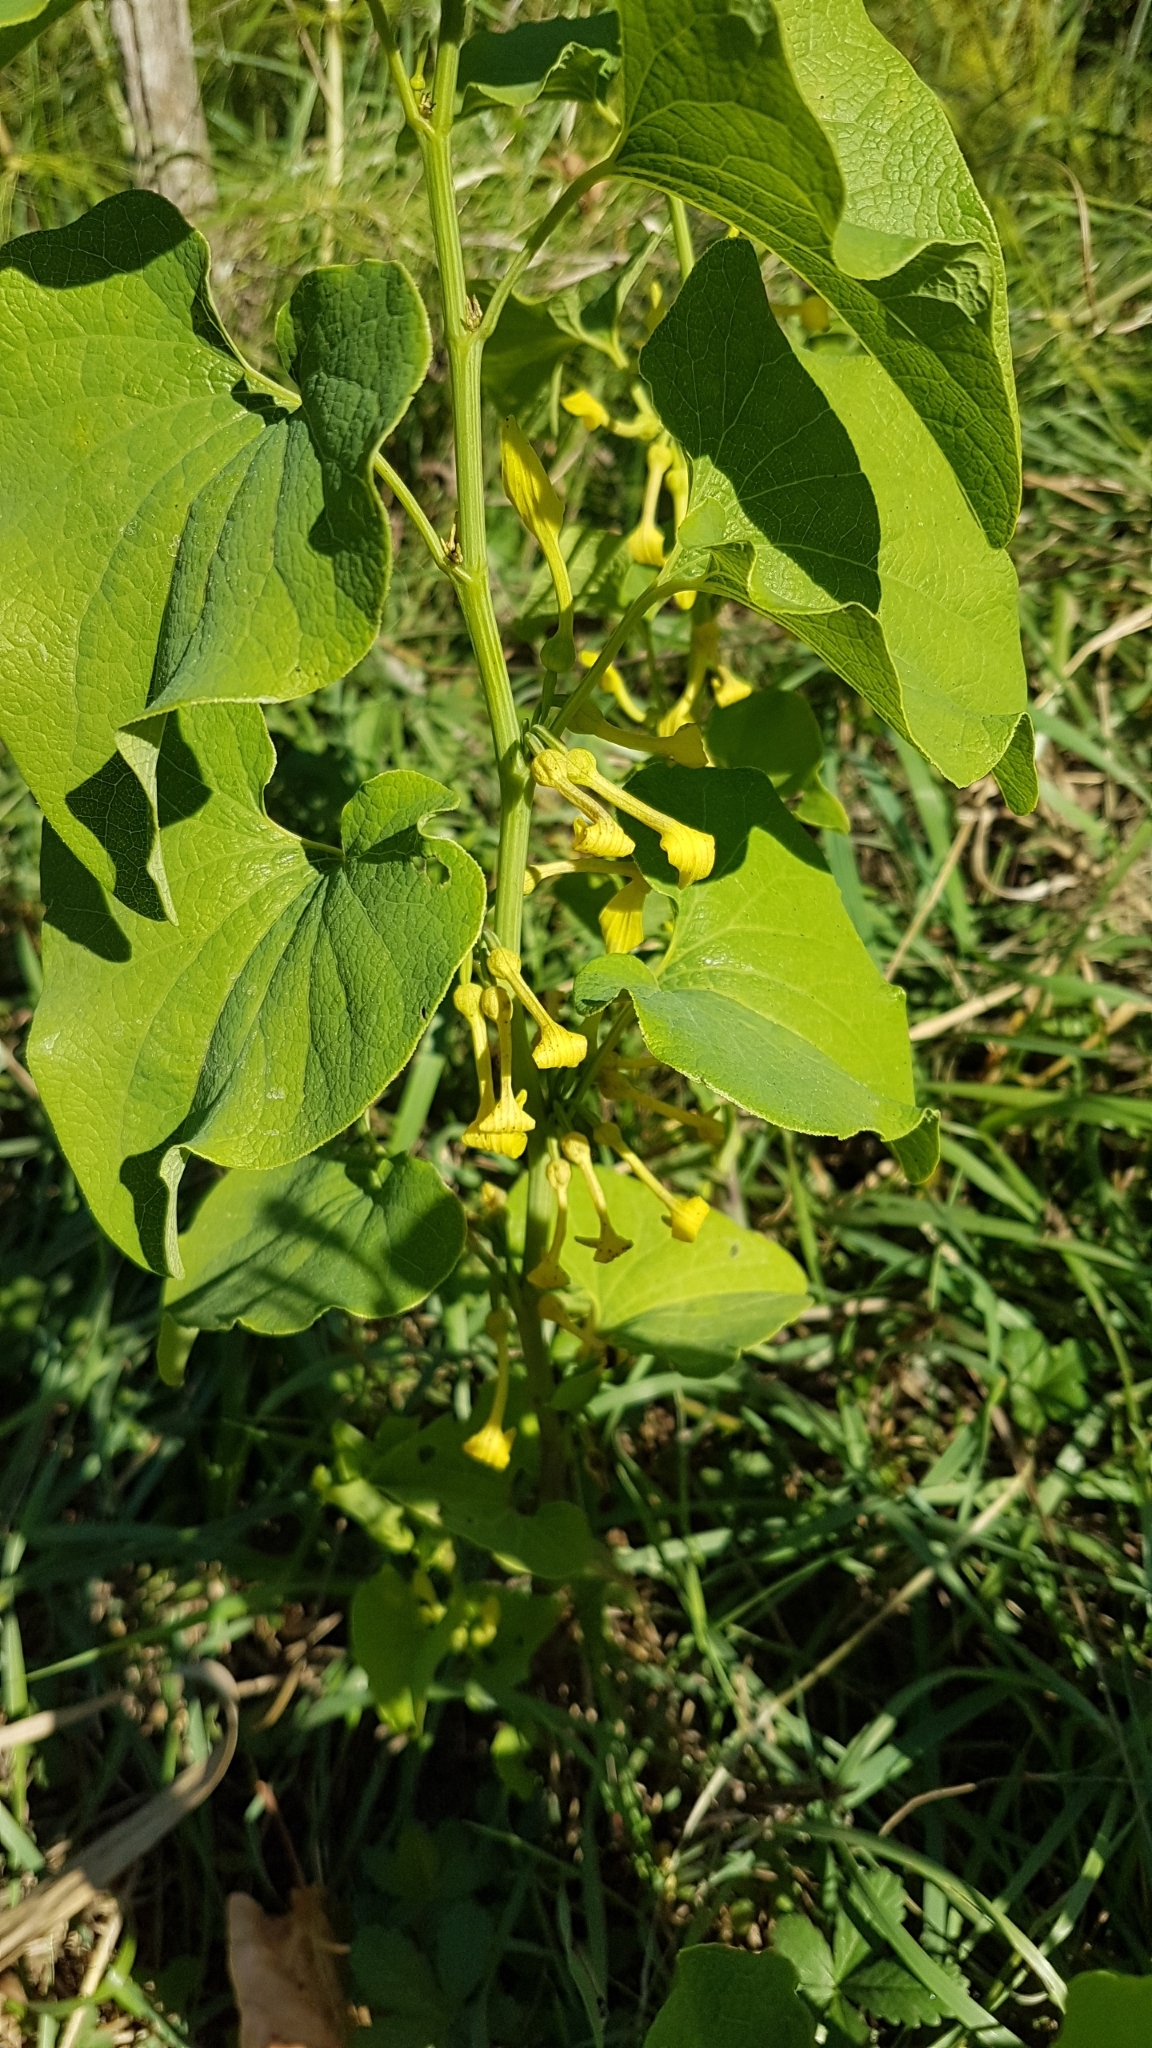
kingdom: Plantae
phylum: Tracheophyta
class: Magnoliopsida
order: Piperales
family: Aristolochiaceae
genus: Aristolochia
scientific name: Aristolochia clematitis
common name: Birthwort
